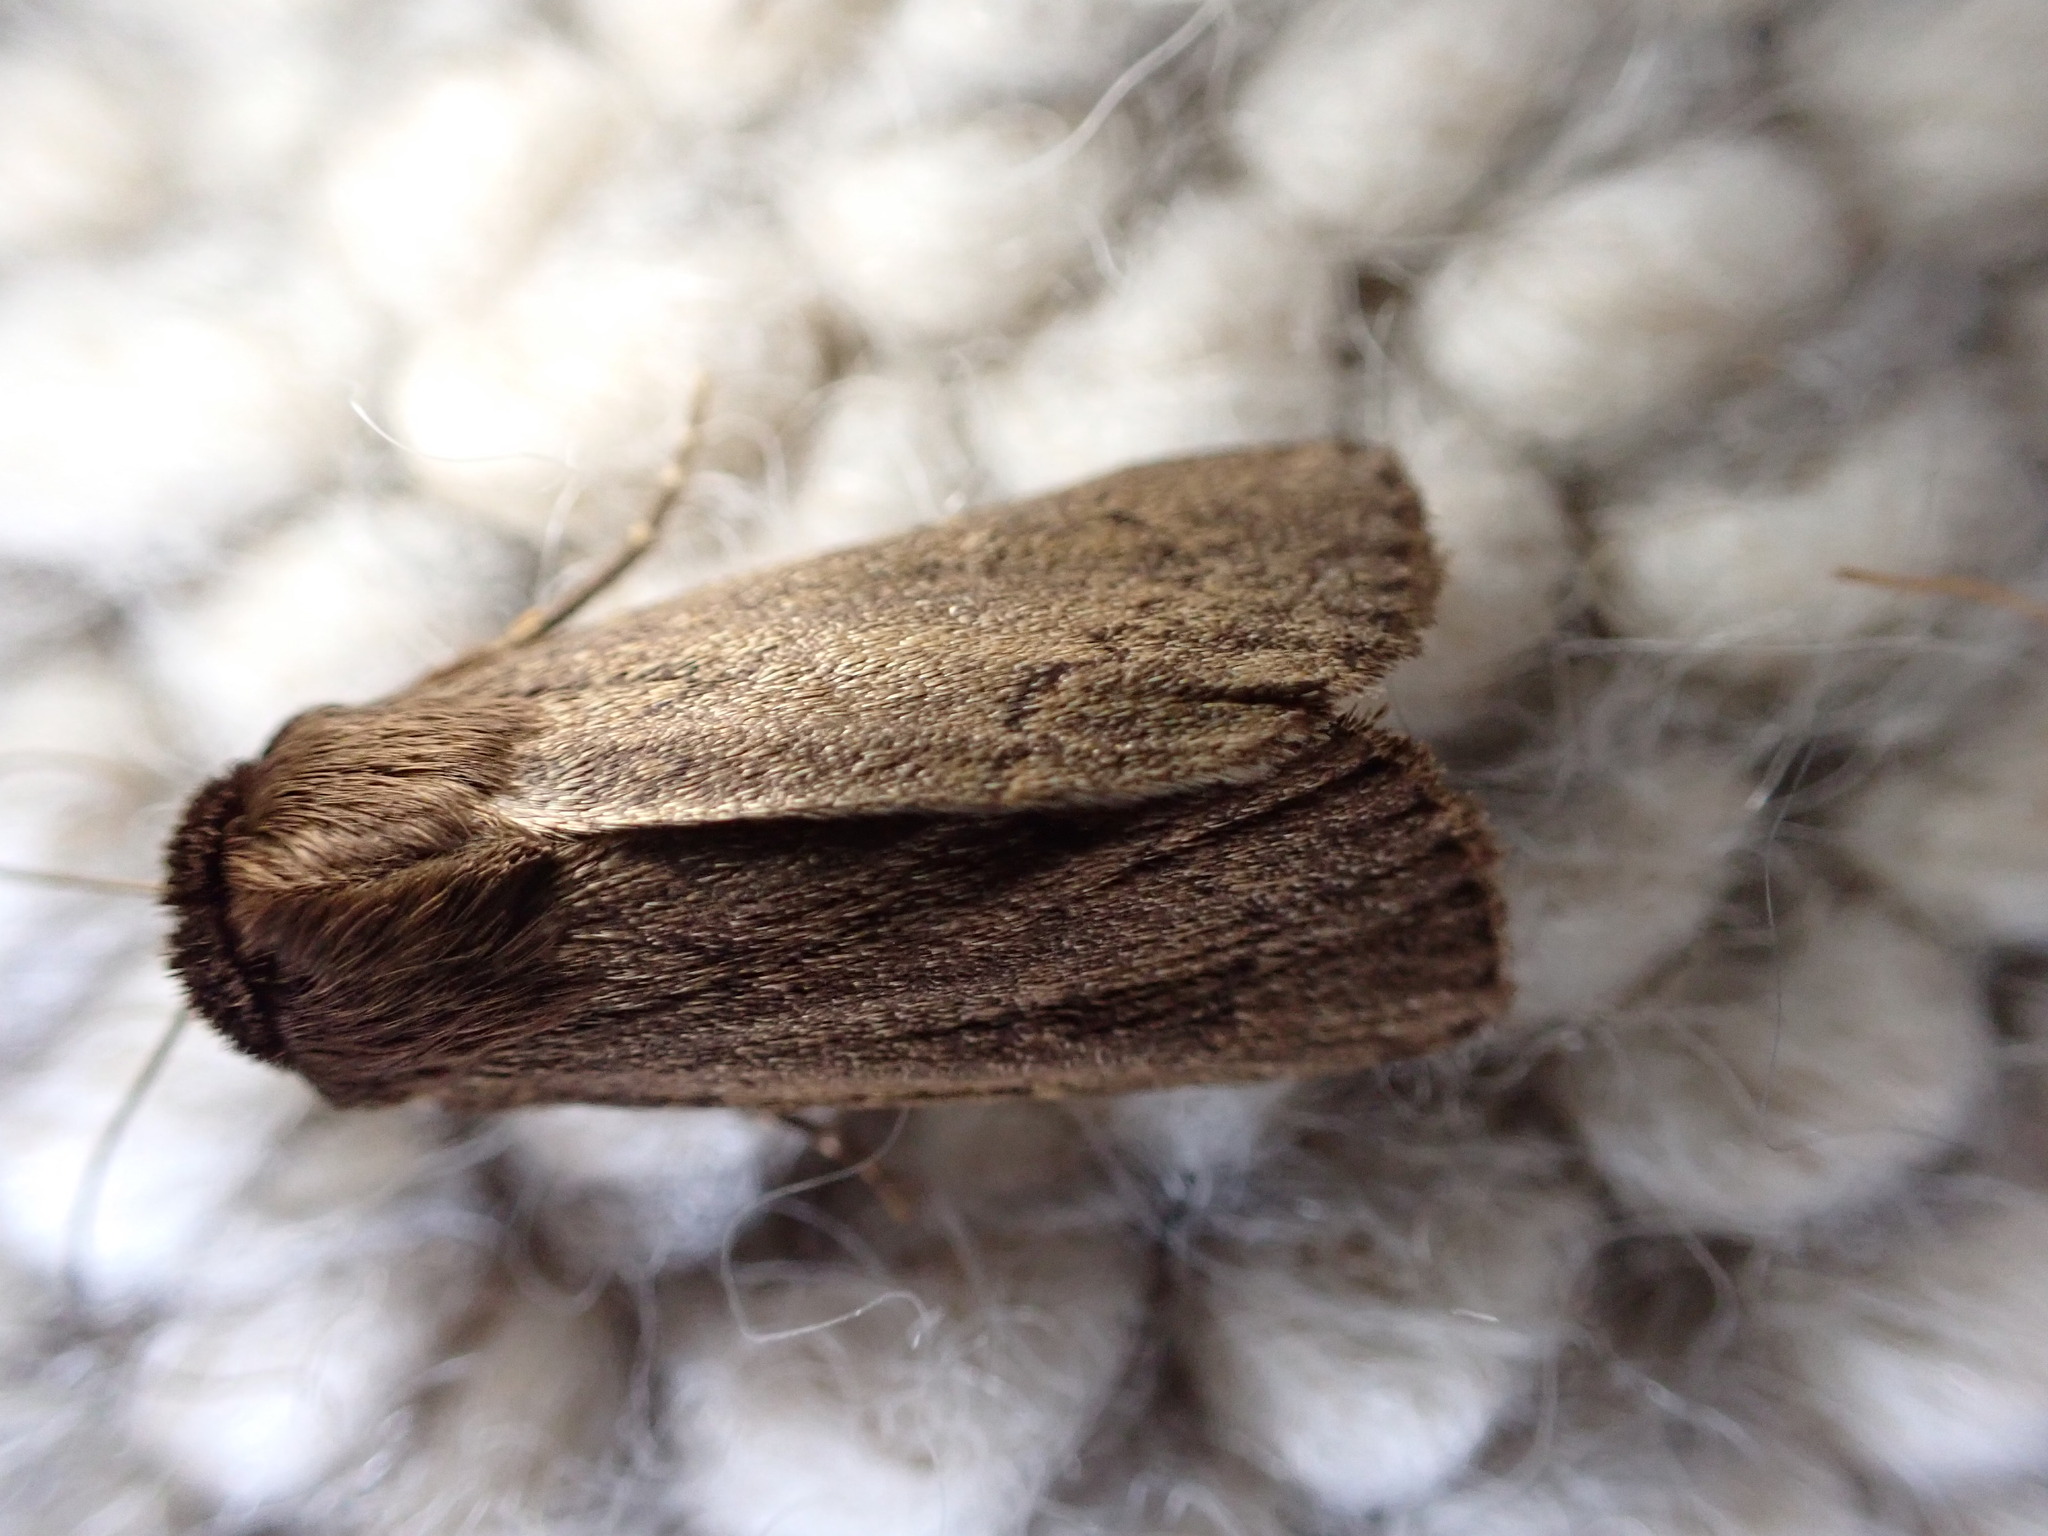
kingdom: Animalia
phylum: Arthropoda
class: Insecta
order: Lepidoptera
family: Noctuidae
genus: Bityla
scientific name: Bityla defigurata
